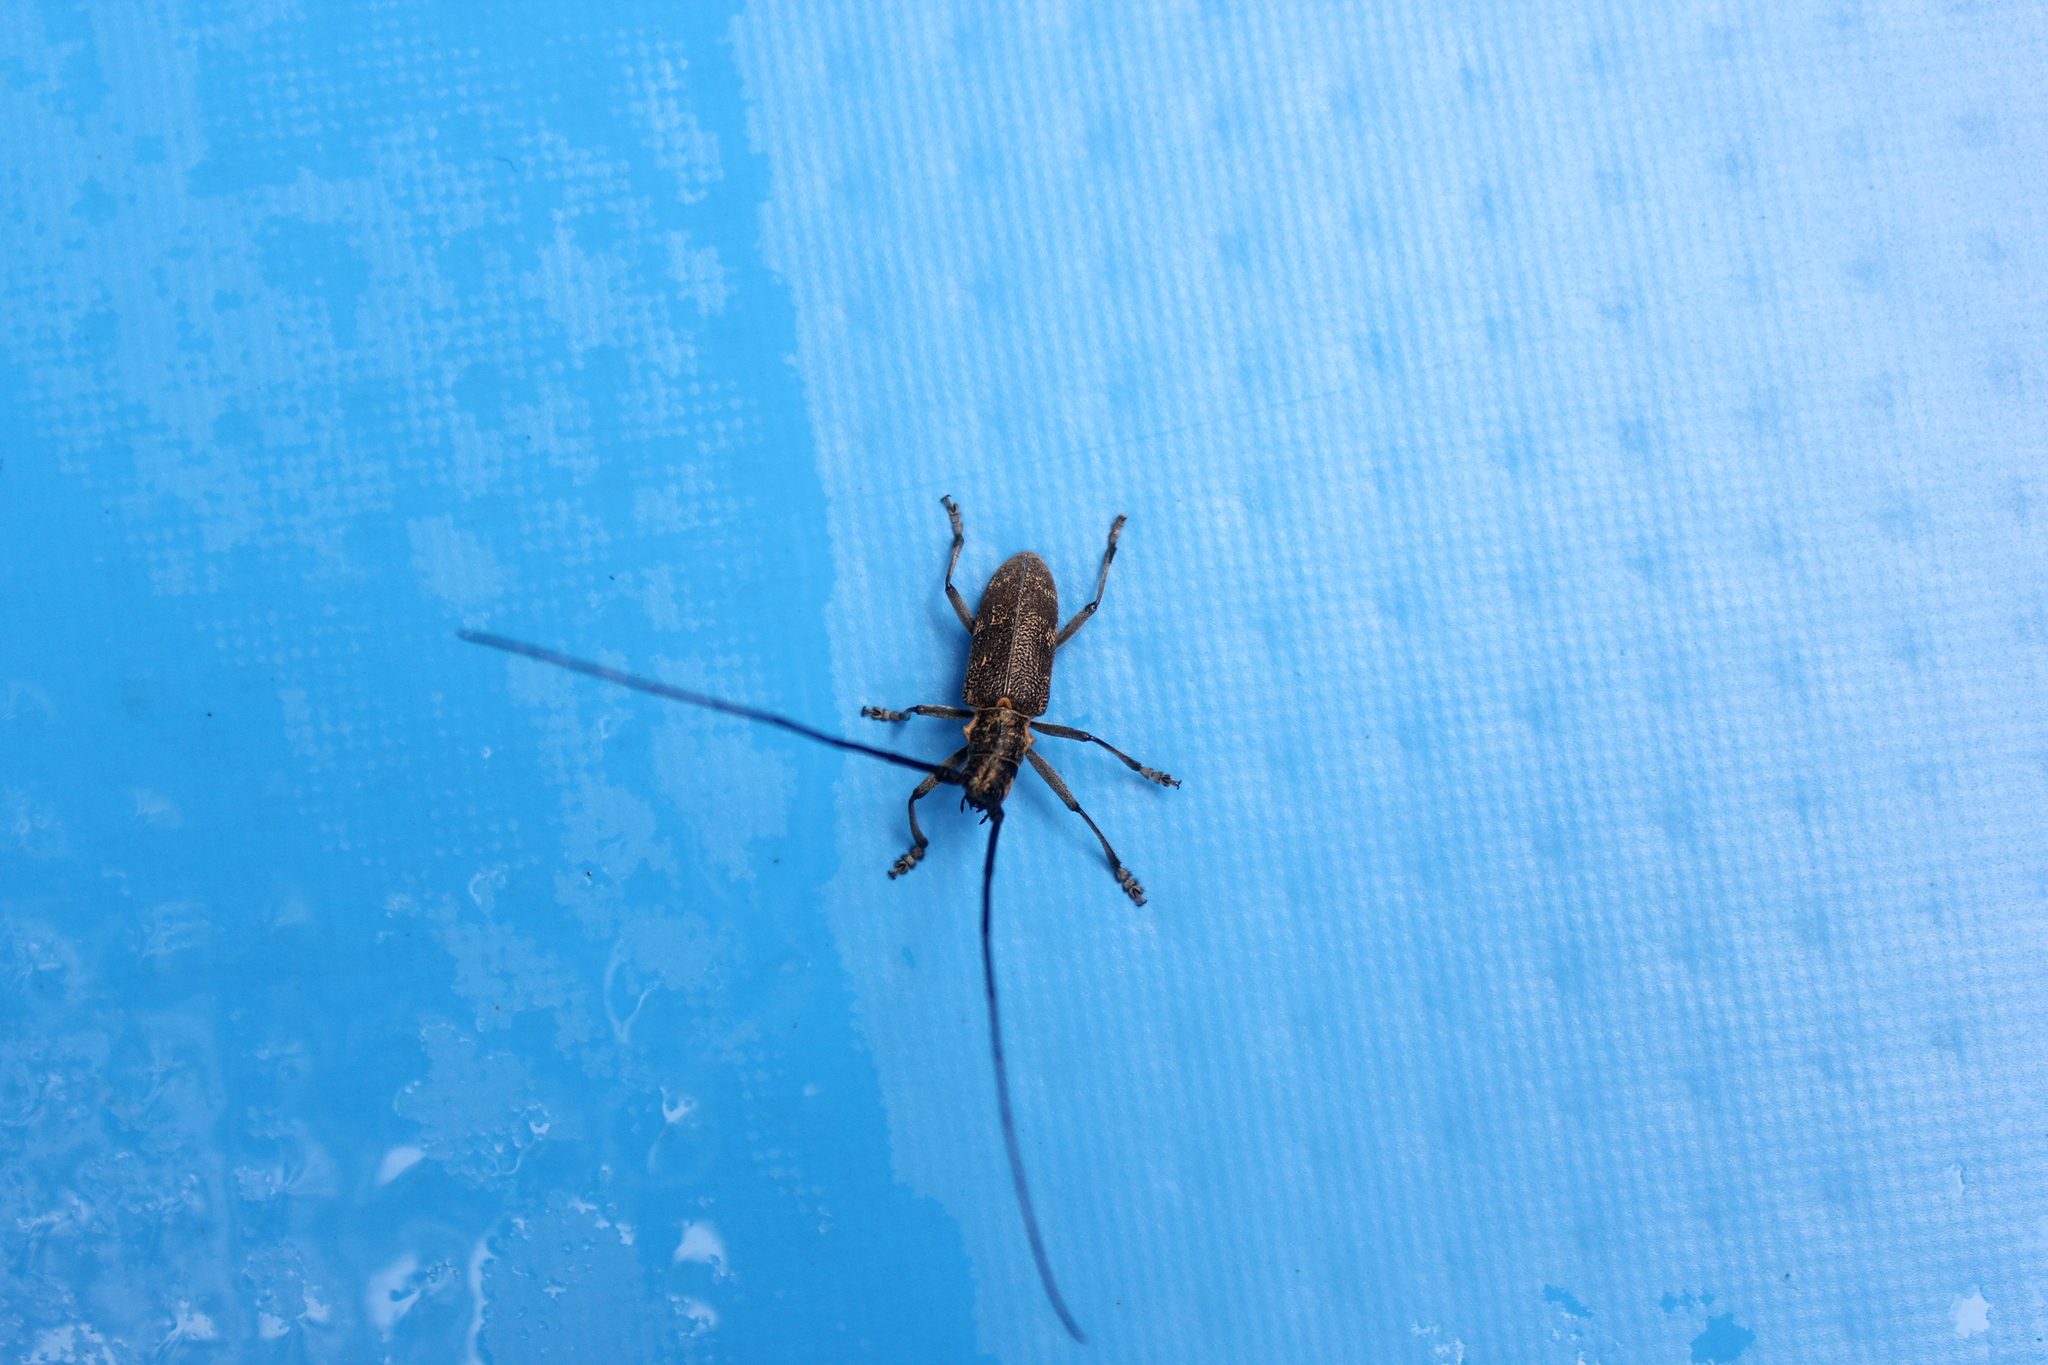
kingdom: Animalia
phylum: Arthropoda
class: Insecta
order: Coleoptera
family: Cerambycidae
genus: Monochamus
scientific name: Monochamus galloprovincialis
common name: Pine sawyer
